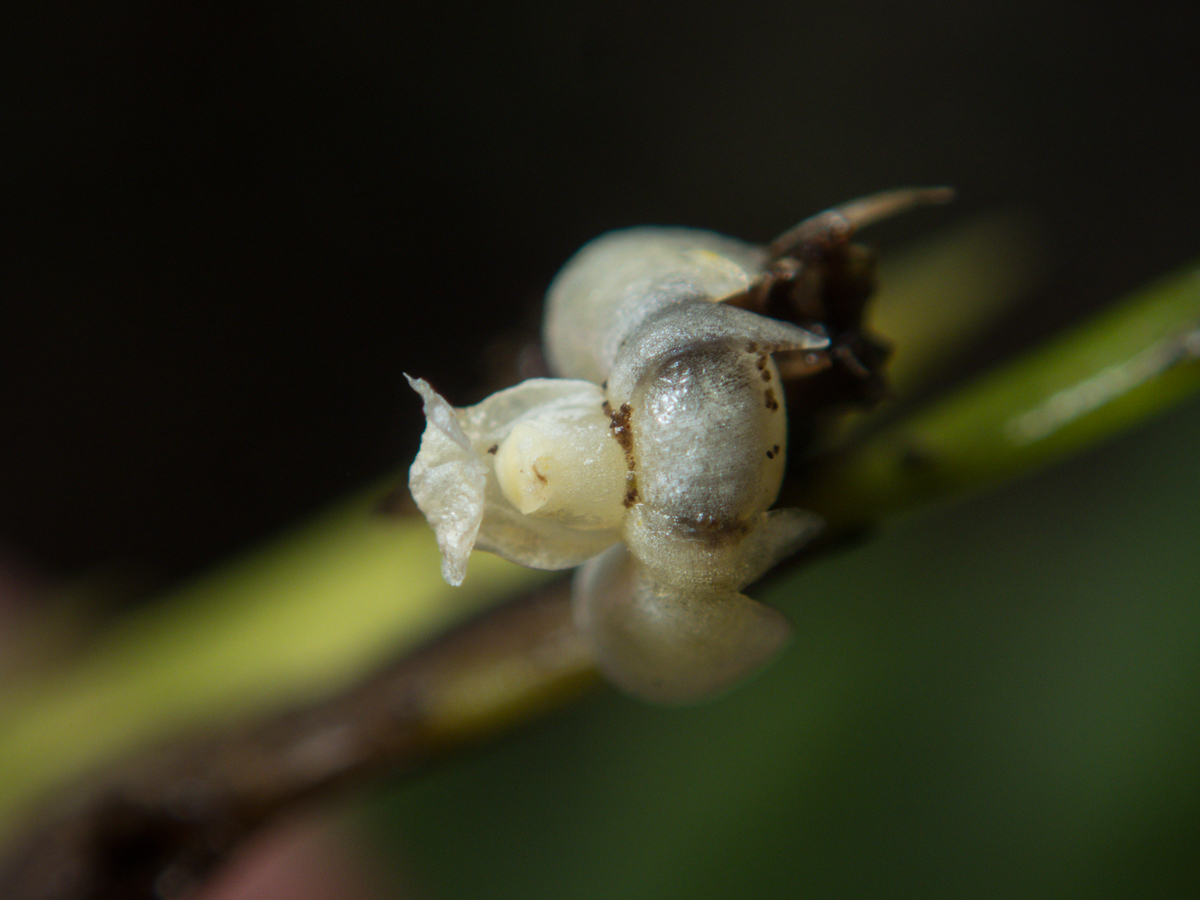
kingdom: Plantae
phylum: Tracheophyta
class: Liliopsida
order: Asparagales
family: Orchidaceae
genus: Dendrobium
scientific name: Dendrobium aloifolium
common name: Aloe-like dendrobium
